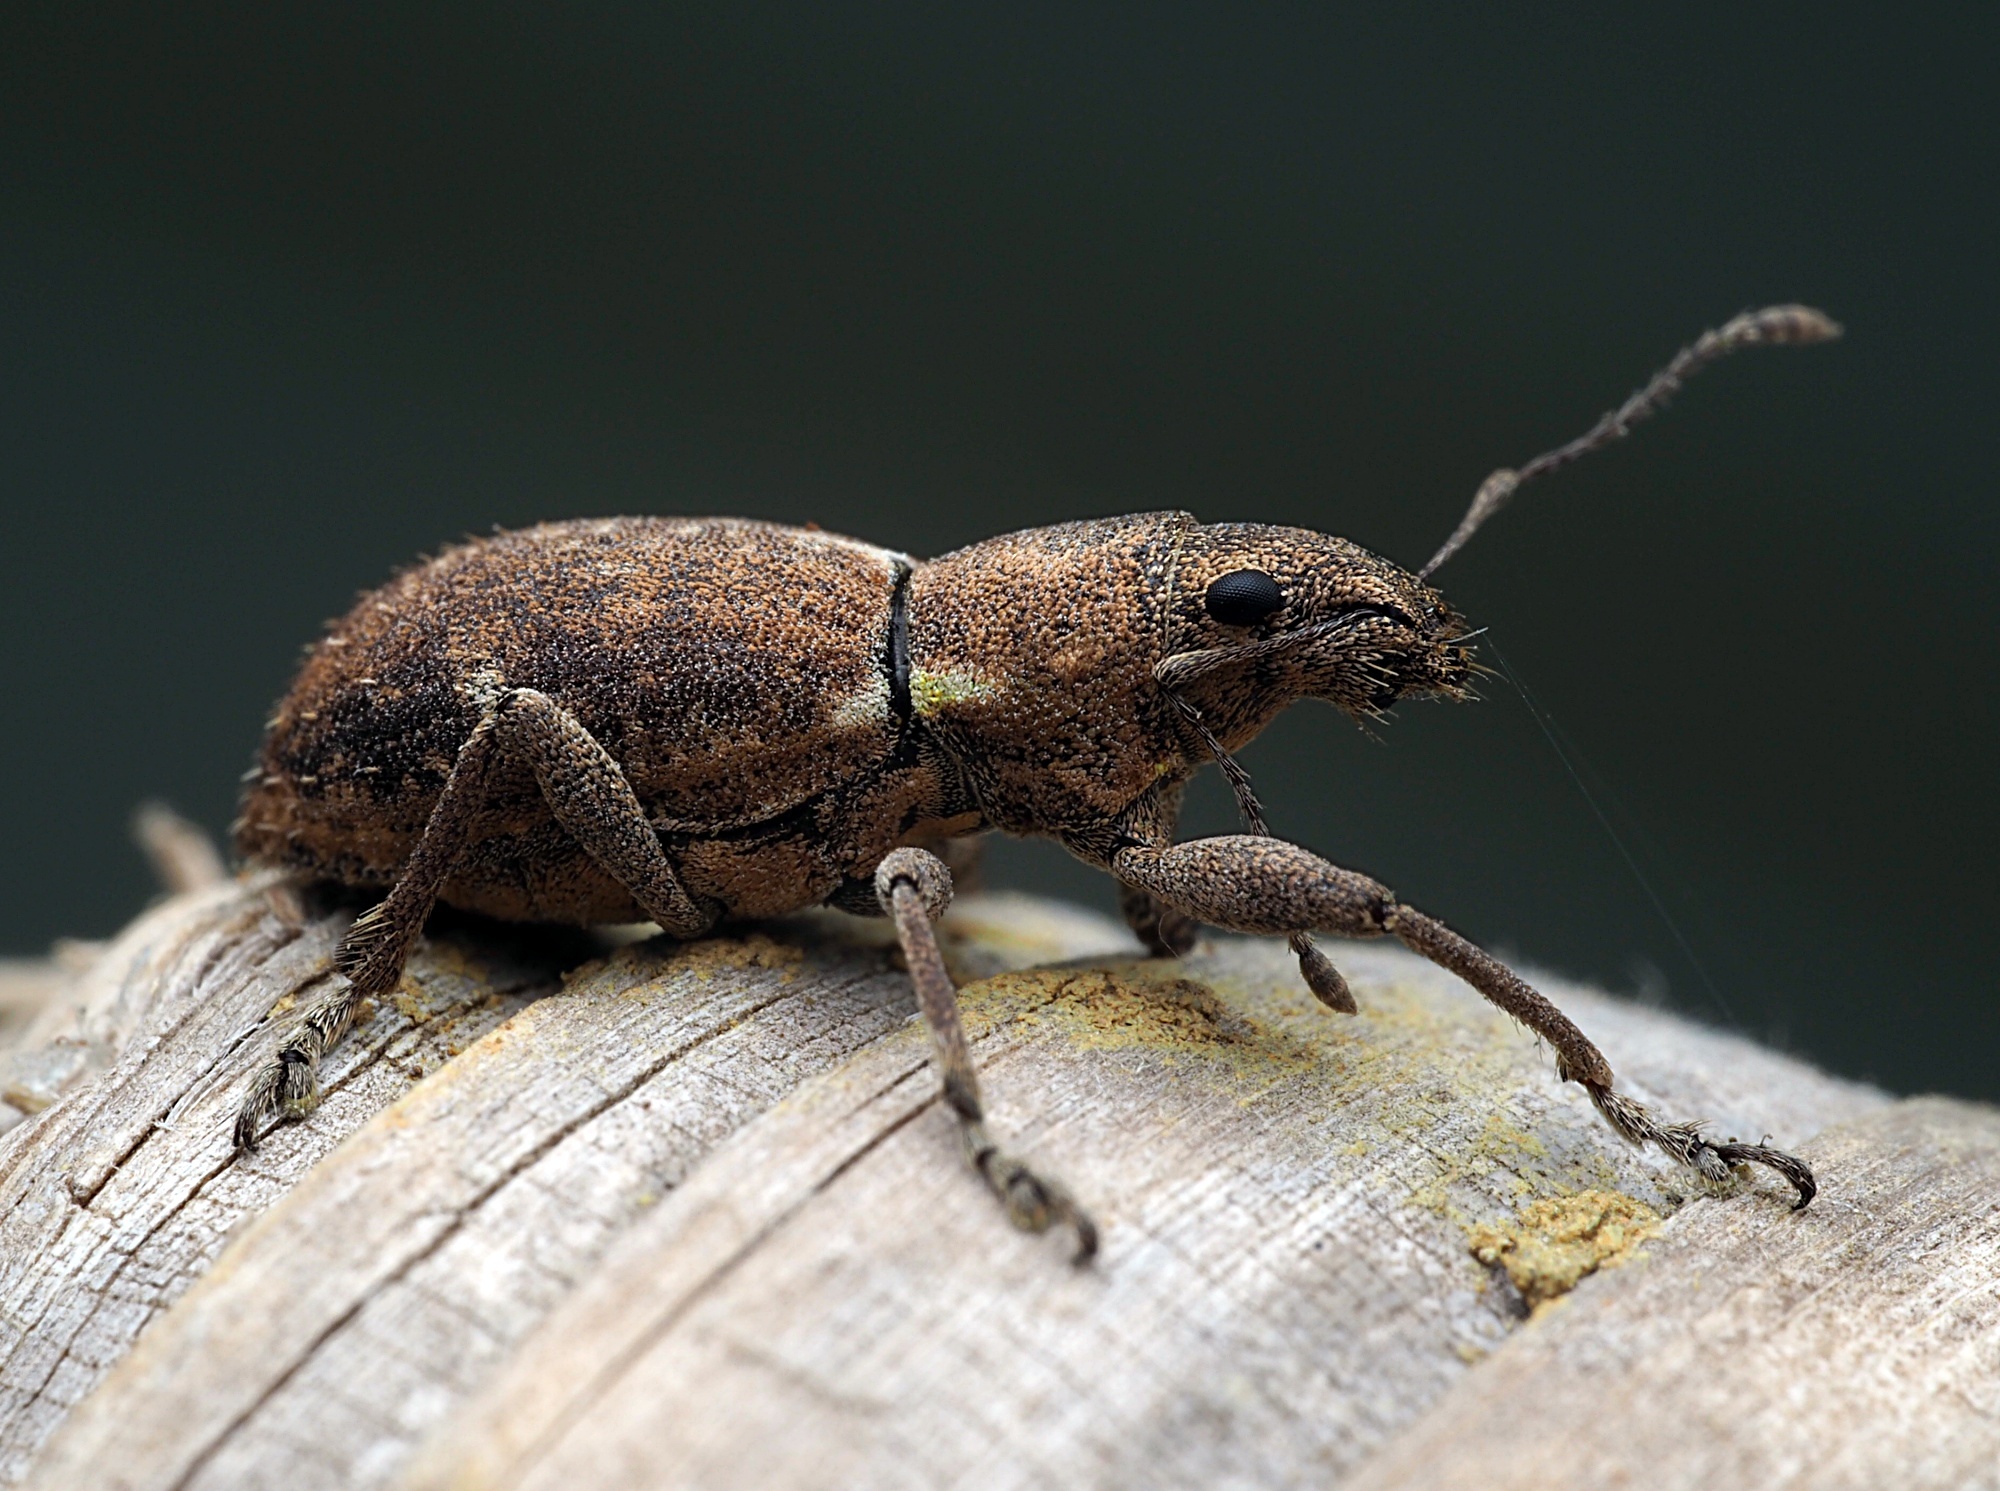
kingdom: Animalia
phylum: Arthropoda
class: Insecta
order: Coleoptera
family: Curculionidae
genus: Naupactus
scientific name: Naupactus cervinus
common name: Fuller rose beetle
